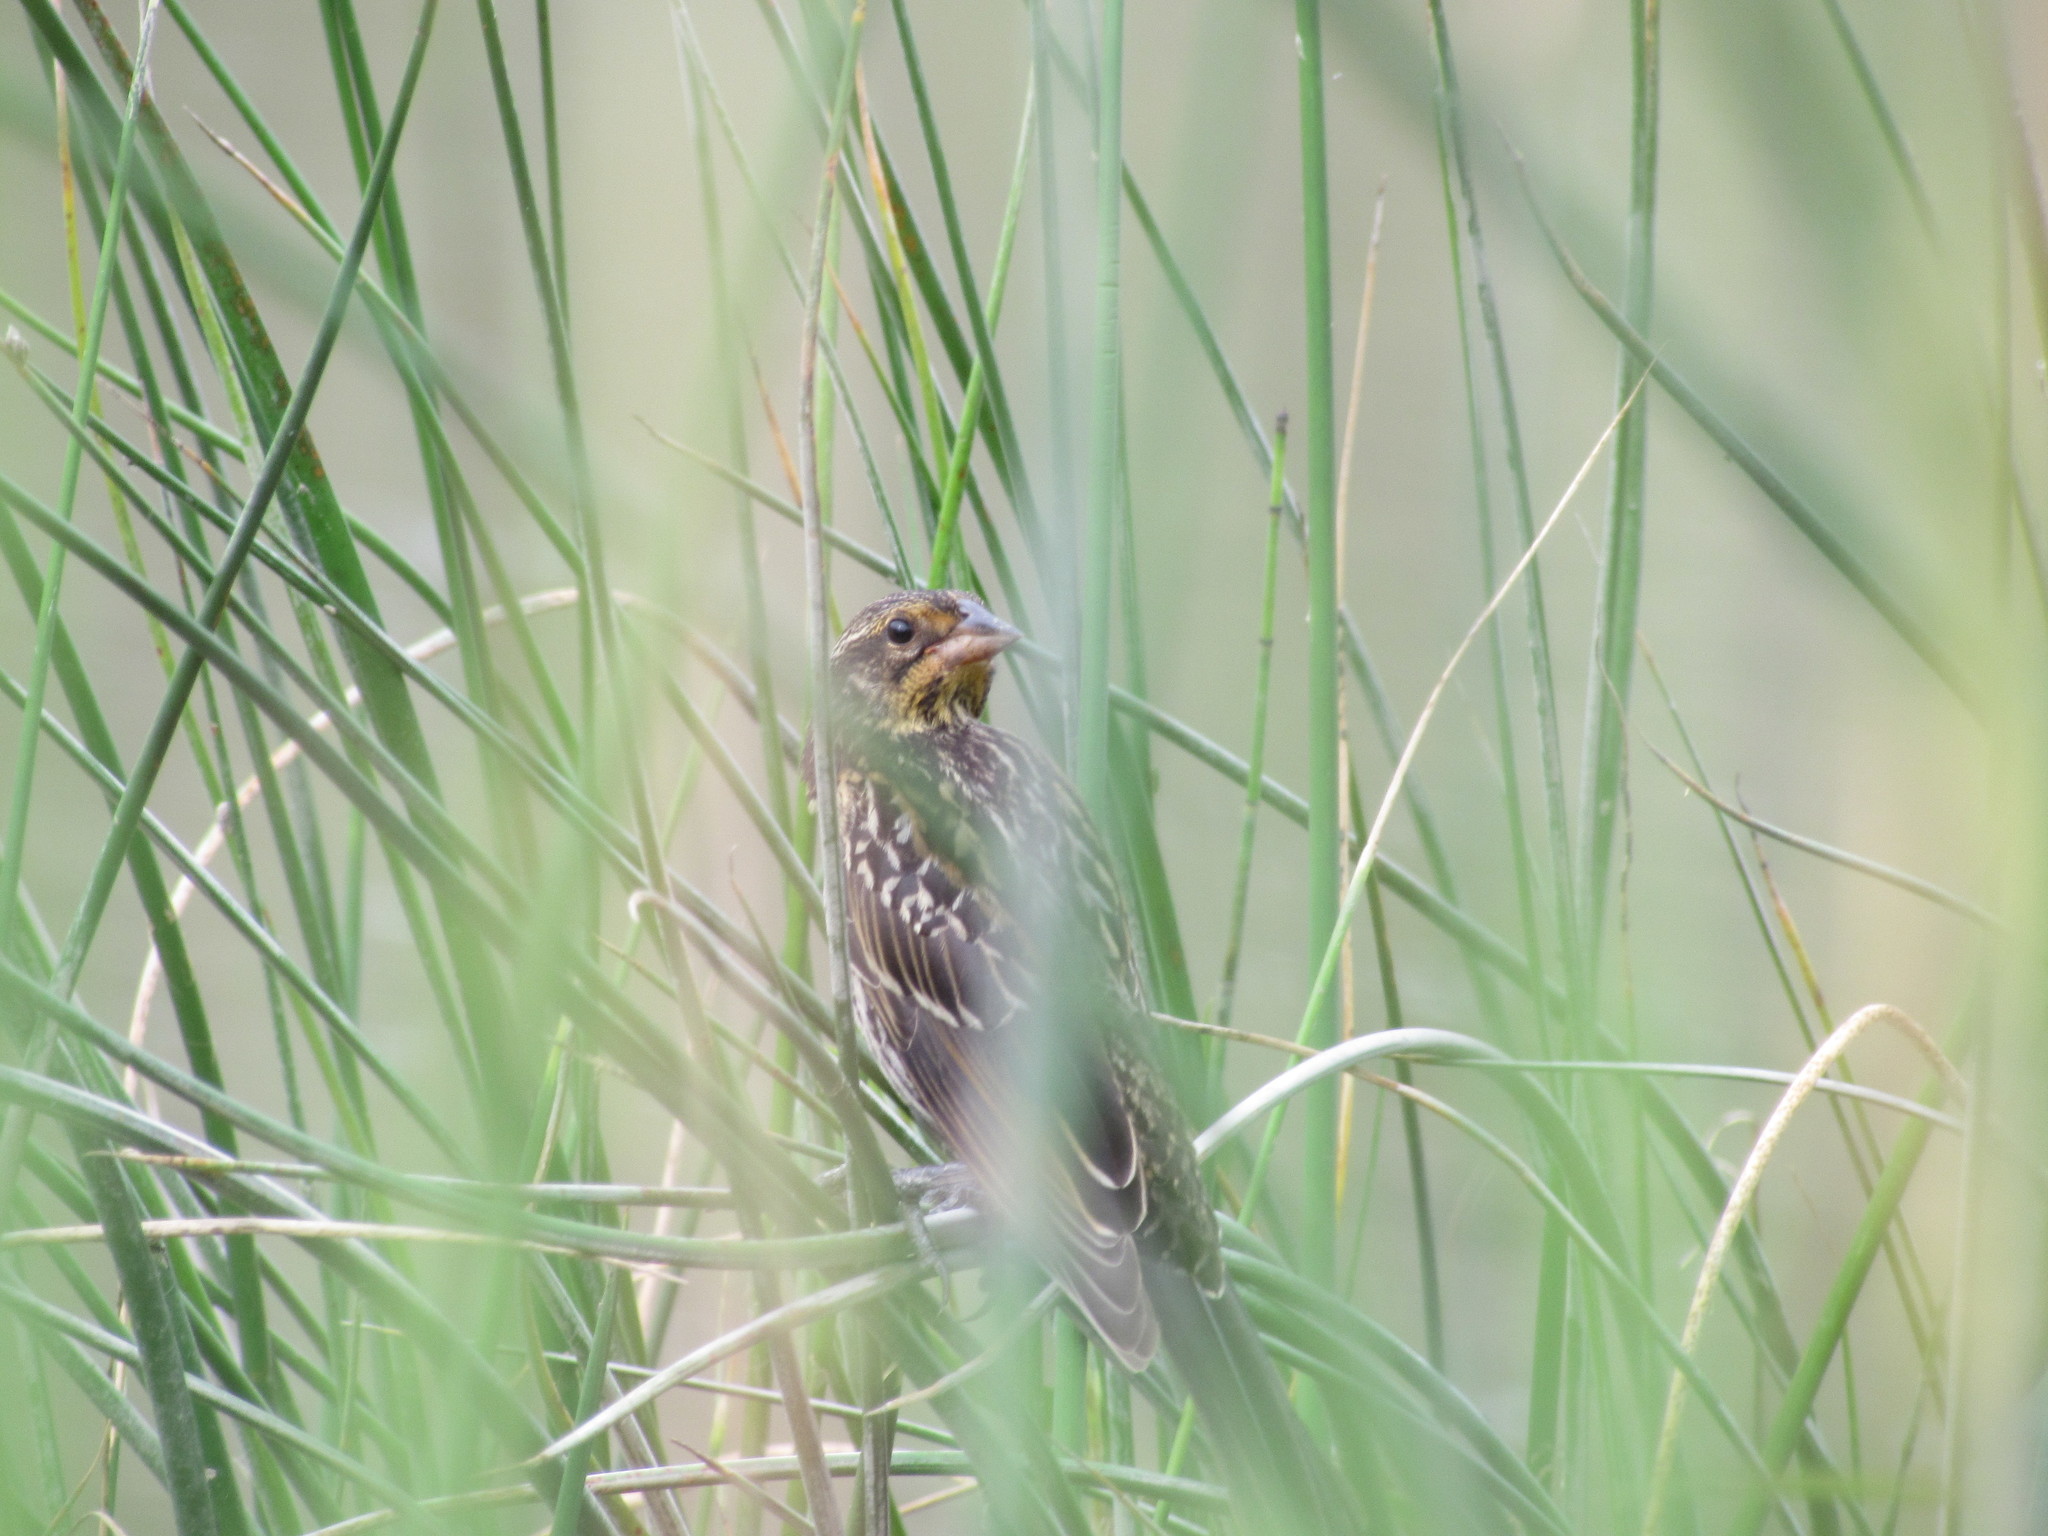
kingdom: Animalia
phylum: Chordata
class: Aves
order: Passeriformes
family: Icteridae
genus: Agelaius
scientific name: Agelaius phoeniceus
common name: Red-winged blackbird
